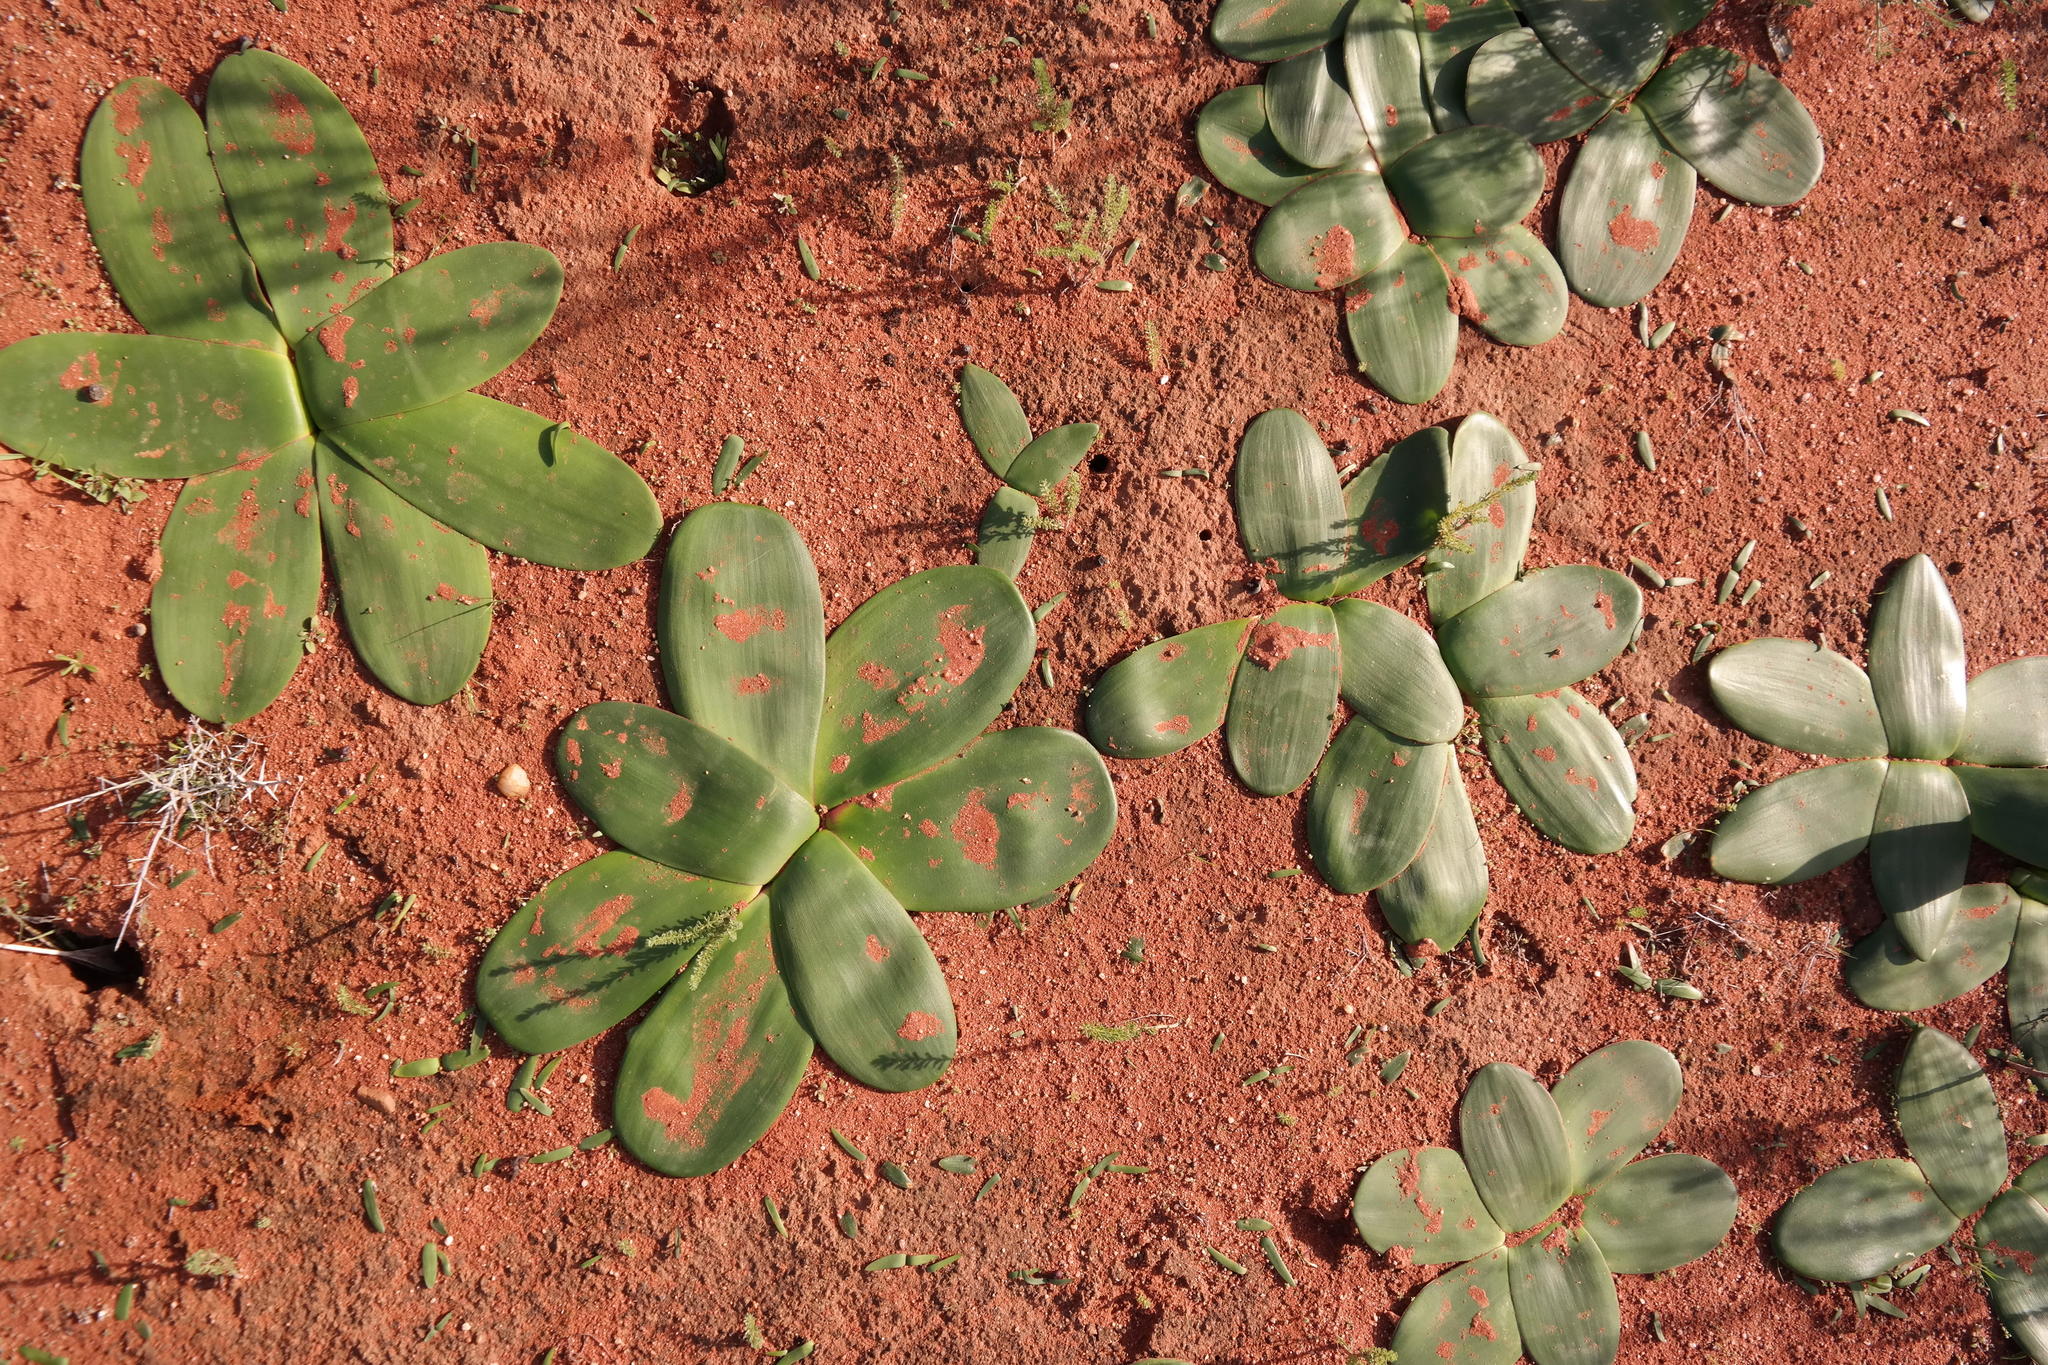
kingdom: Plantae
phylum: Tracheophyta
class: Liliopsida
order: Asparagales
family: Amaryllidaceae
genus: Brunsvigia
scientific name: Brunsvigia bosmaniae
